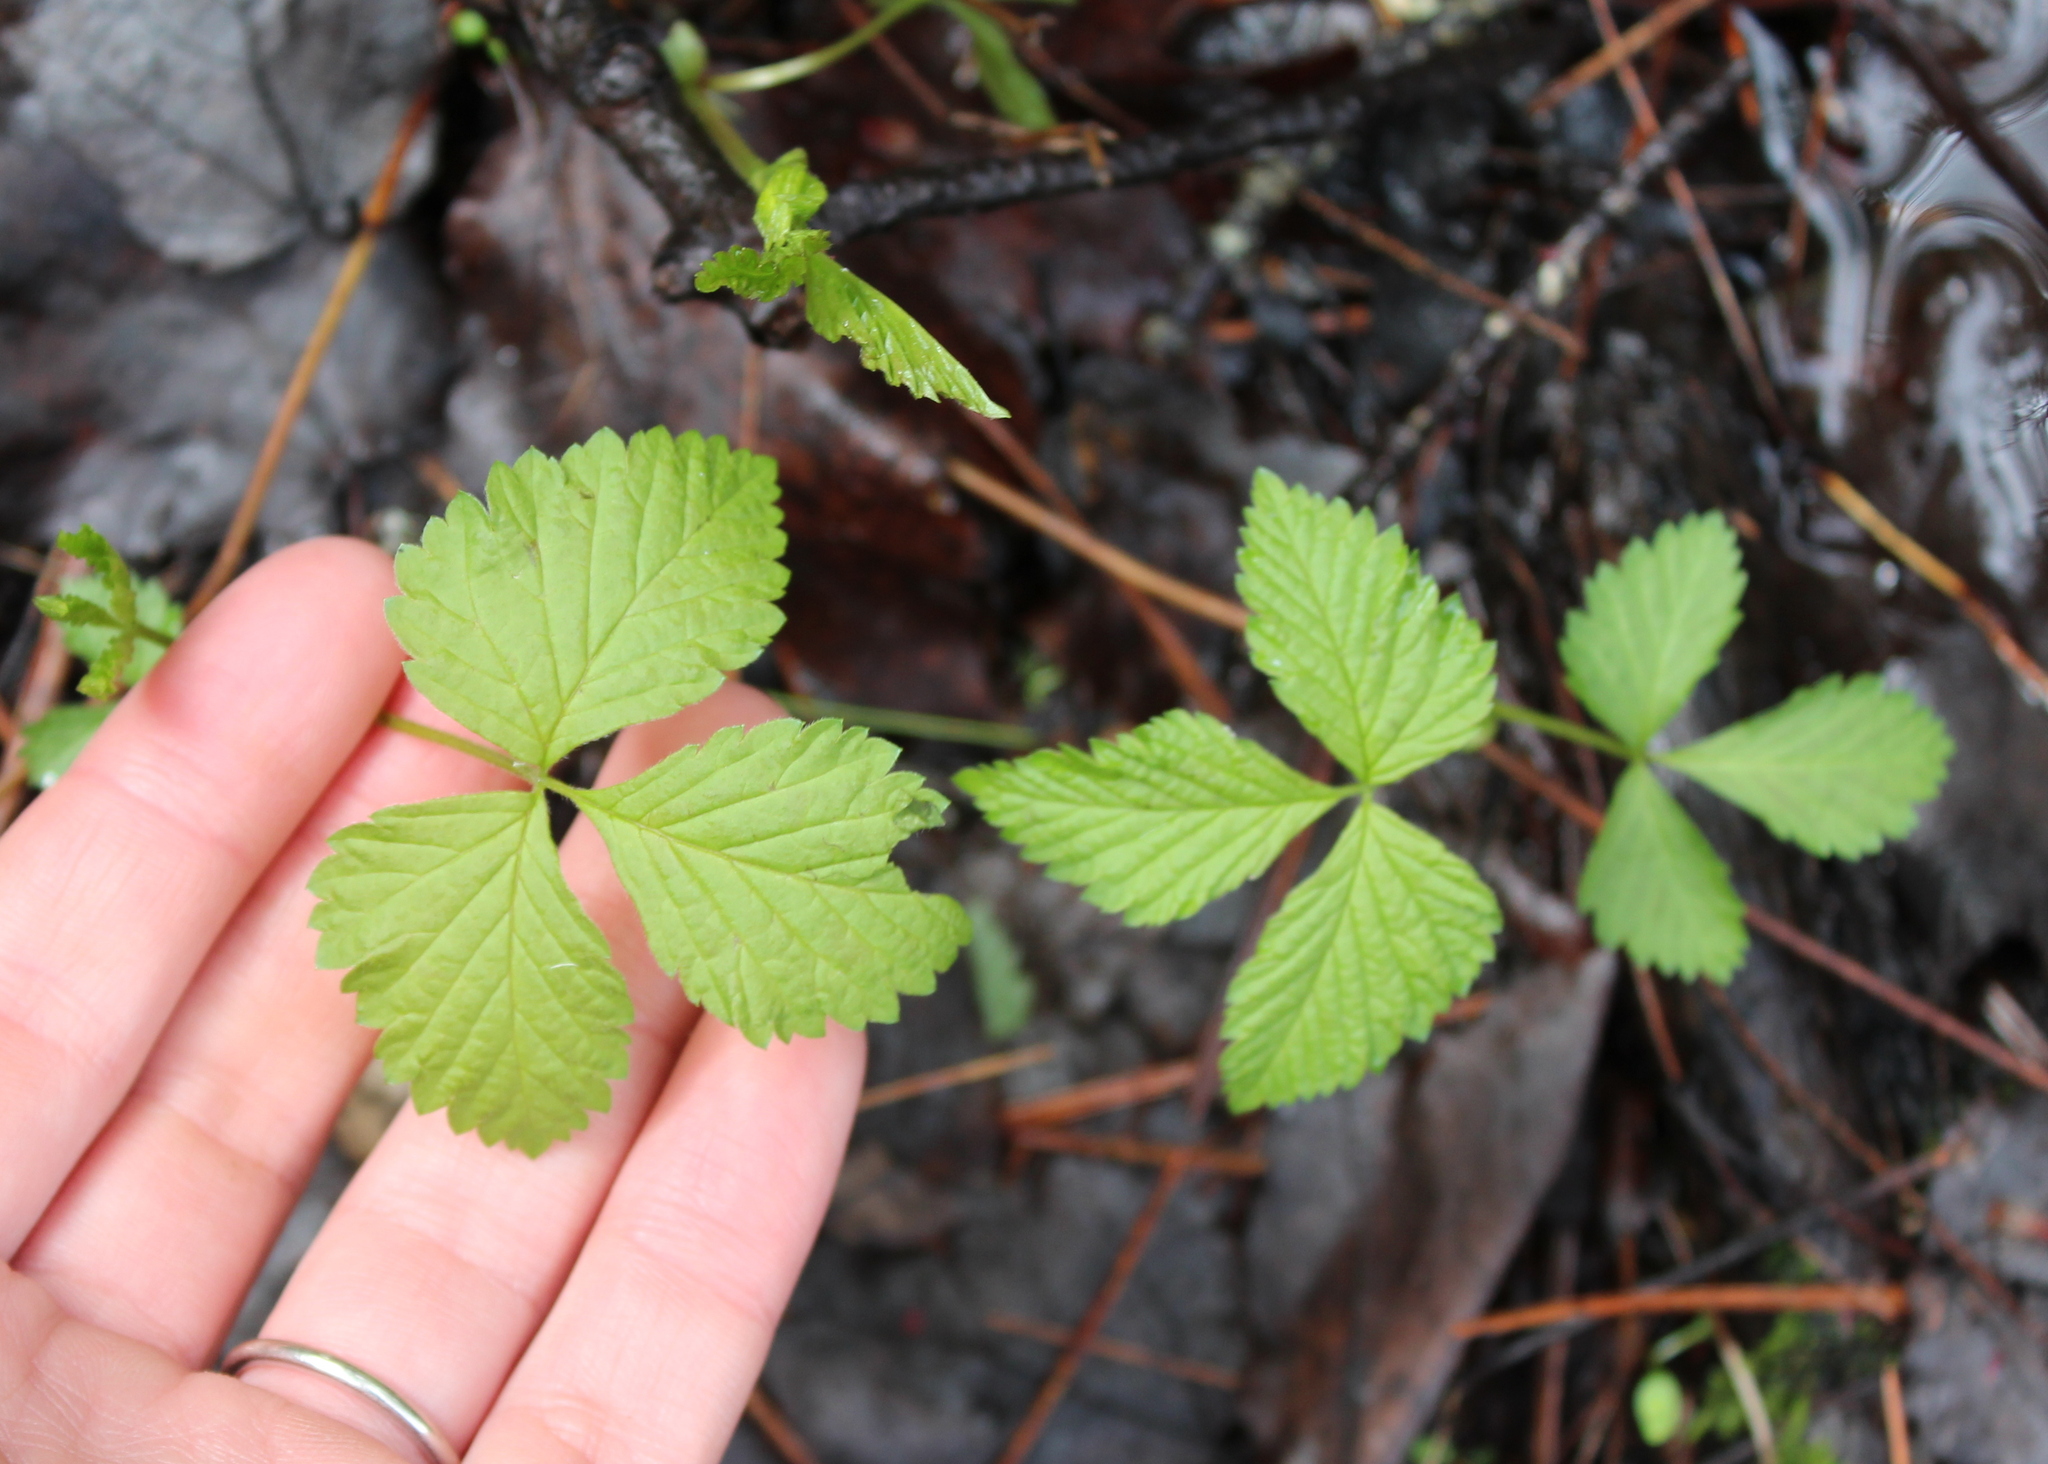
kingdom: Plantae
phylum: Tracheophyta
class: Magnoliopsida
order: Rosales
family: Rosaceae
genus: Rubus
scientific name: Rubus pubescens
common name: Dwarf raspberry
